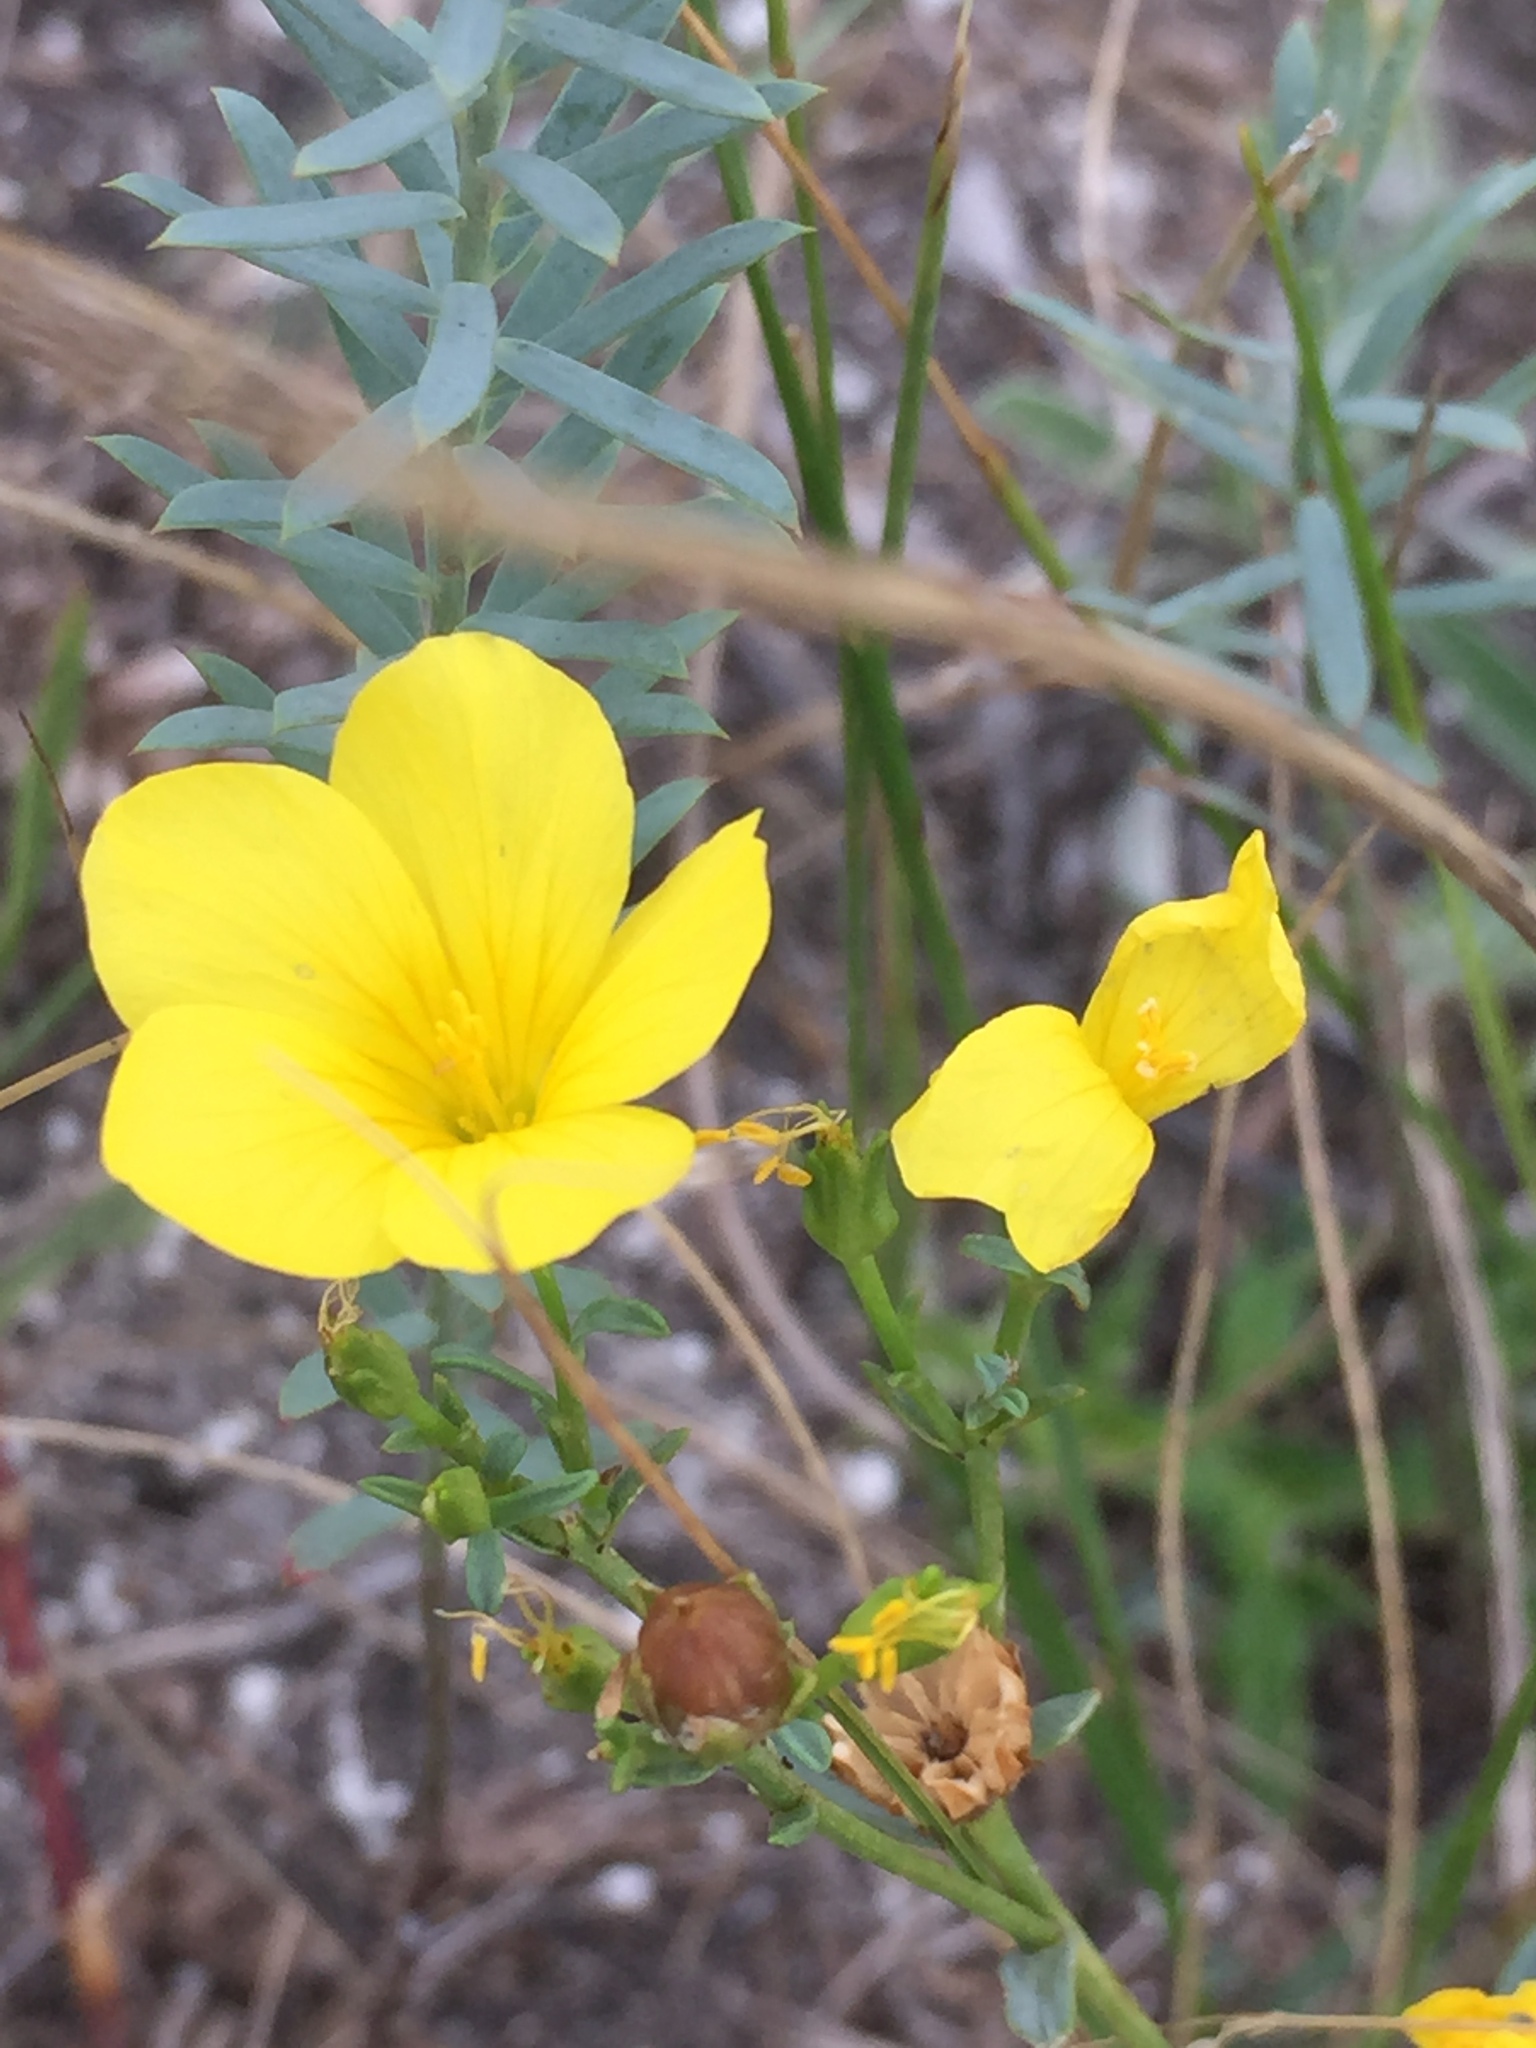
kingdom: Plantae
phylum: Tracheophyta
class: Magnoliopsida
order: Malpighiales
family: Linaceae
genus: Linum
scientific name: Linum ucranicum
